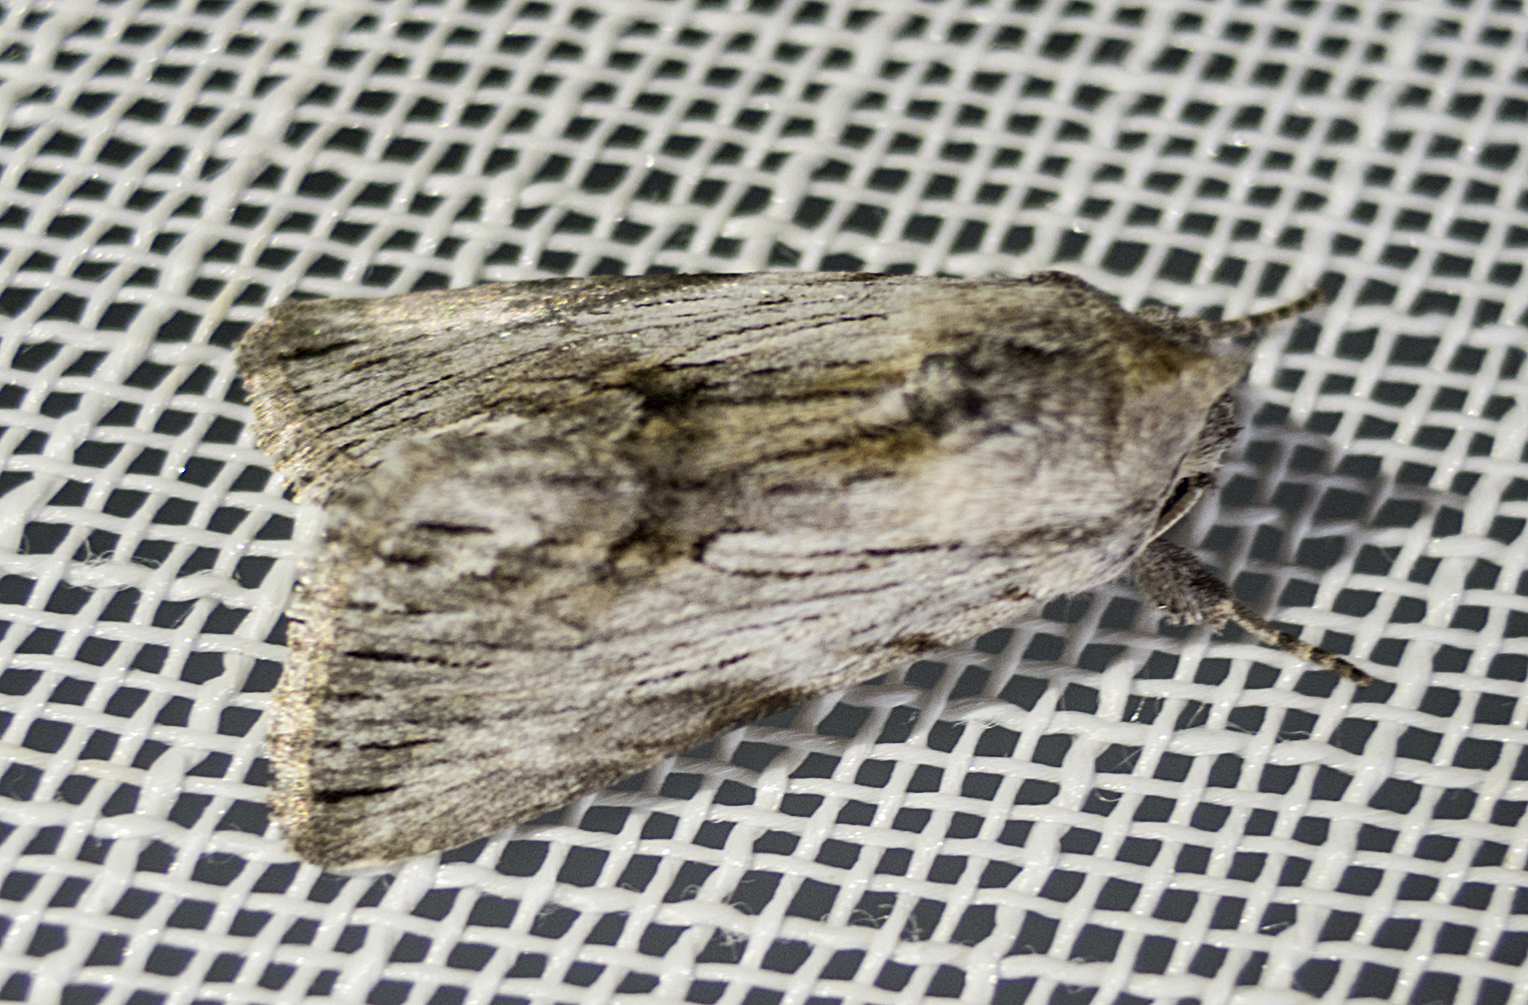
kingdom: Animalia
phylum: Arthropoda
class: Insecta
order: Lepidoptera
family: Noctuidae
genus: Calophasia
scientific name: Calophasia platyptera
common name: Antirrhinum brocade
